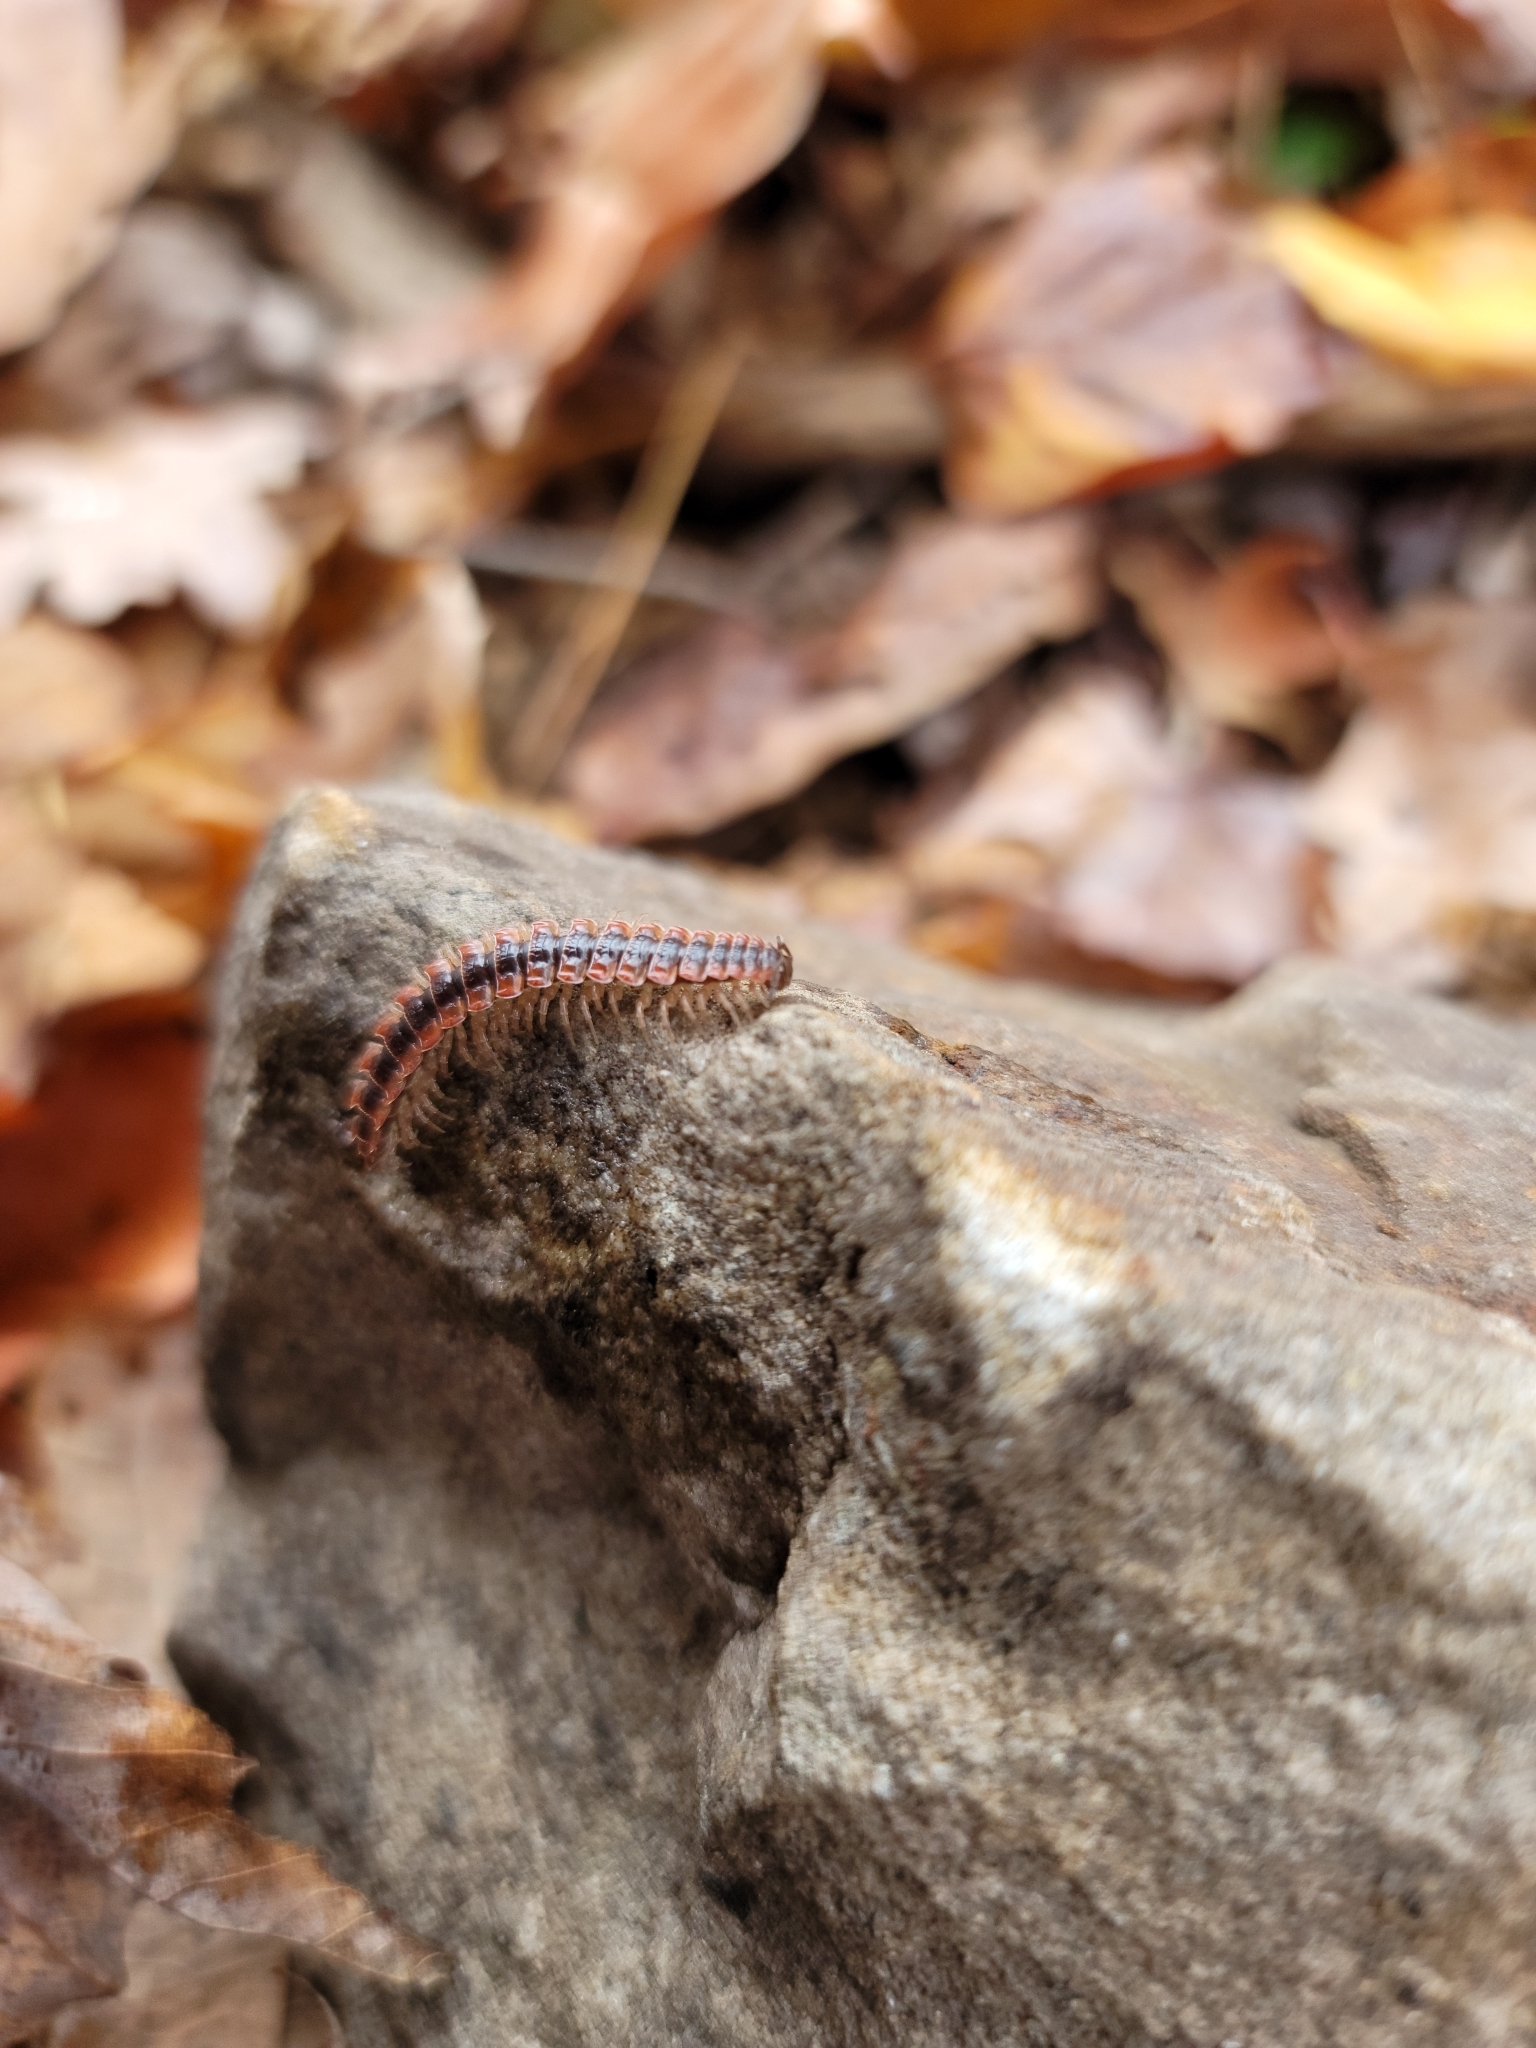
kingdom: Animalia
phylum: Arthropoda
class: Diplopoda
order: Polydesmida
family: Polydesmidae
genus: Pseudopolydesmus
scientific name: Pseudopolydesmus canadensis
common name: Canadian flat-back millipede
